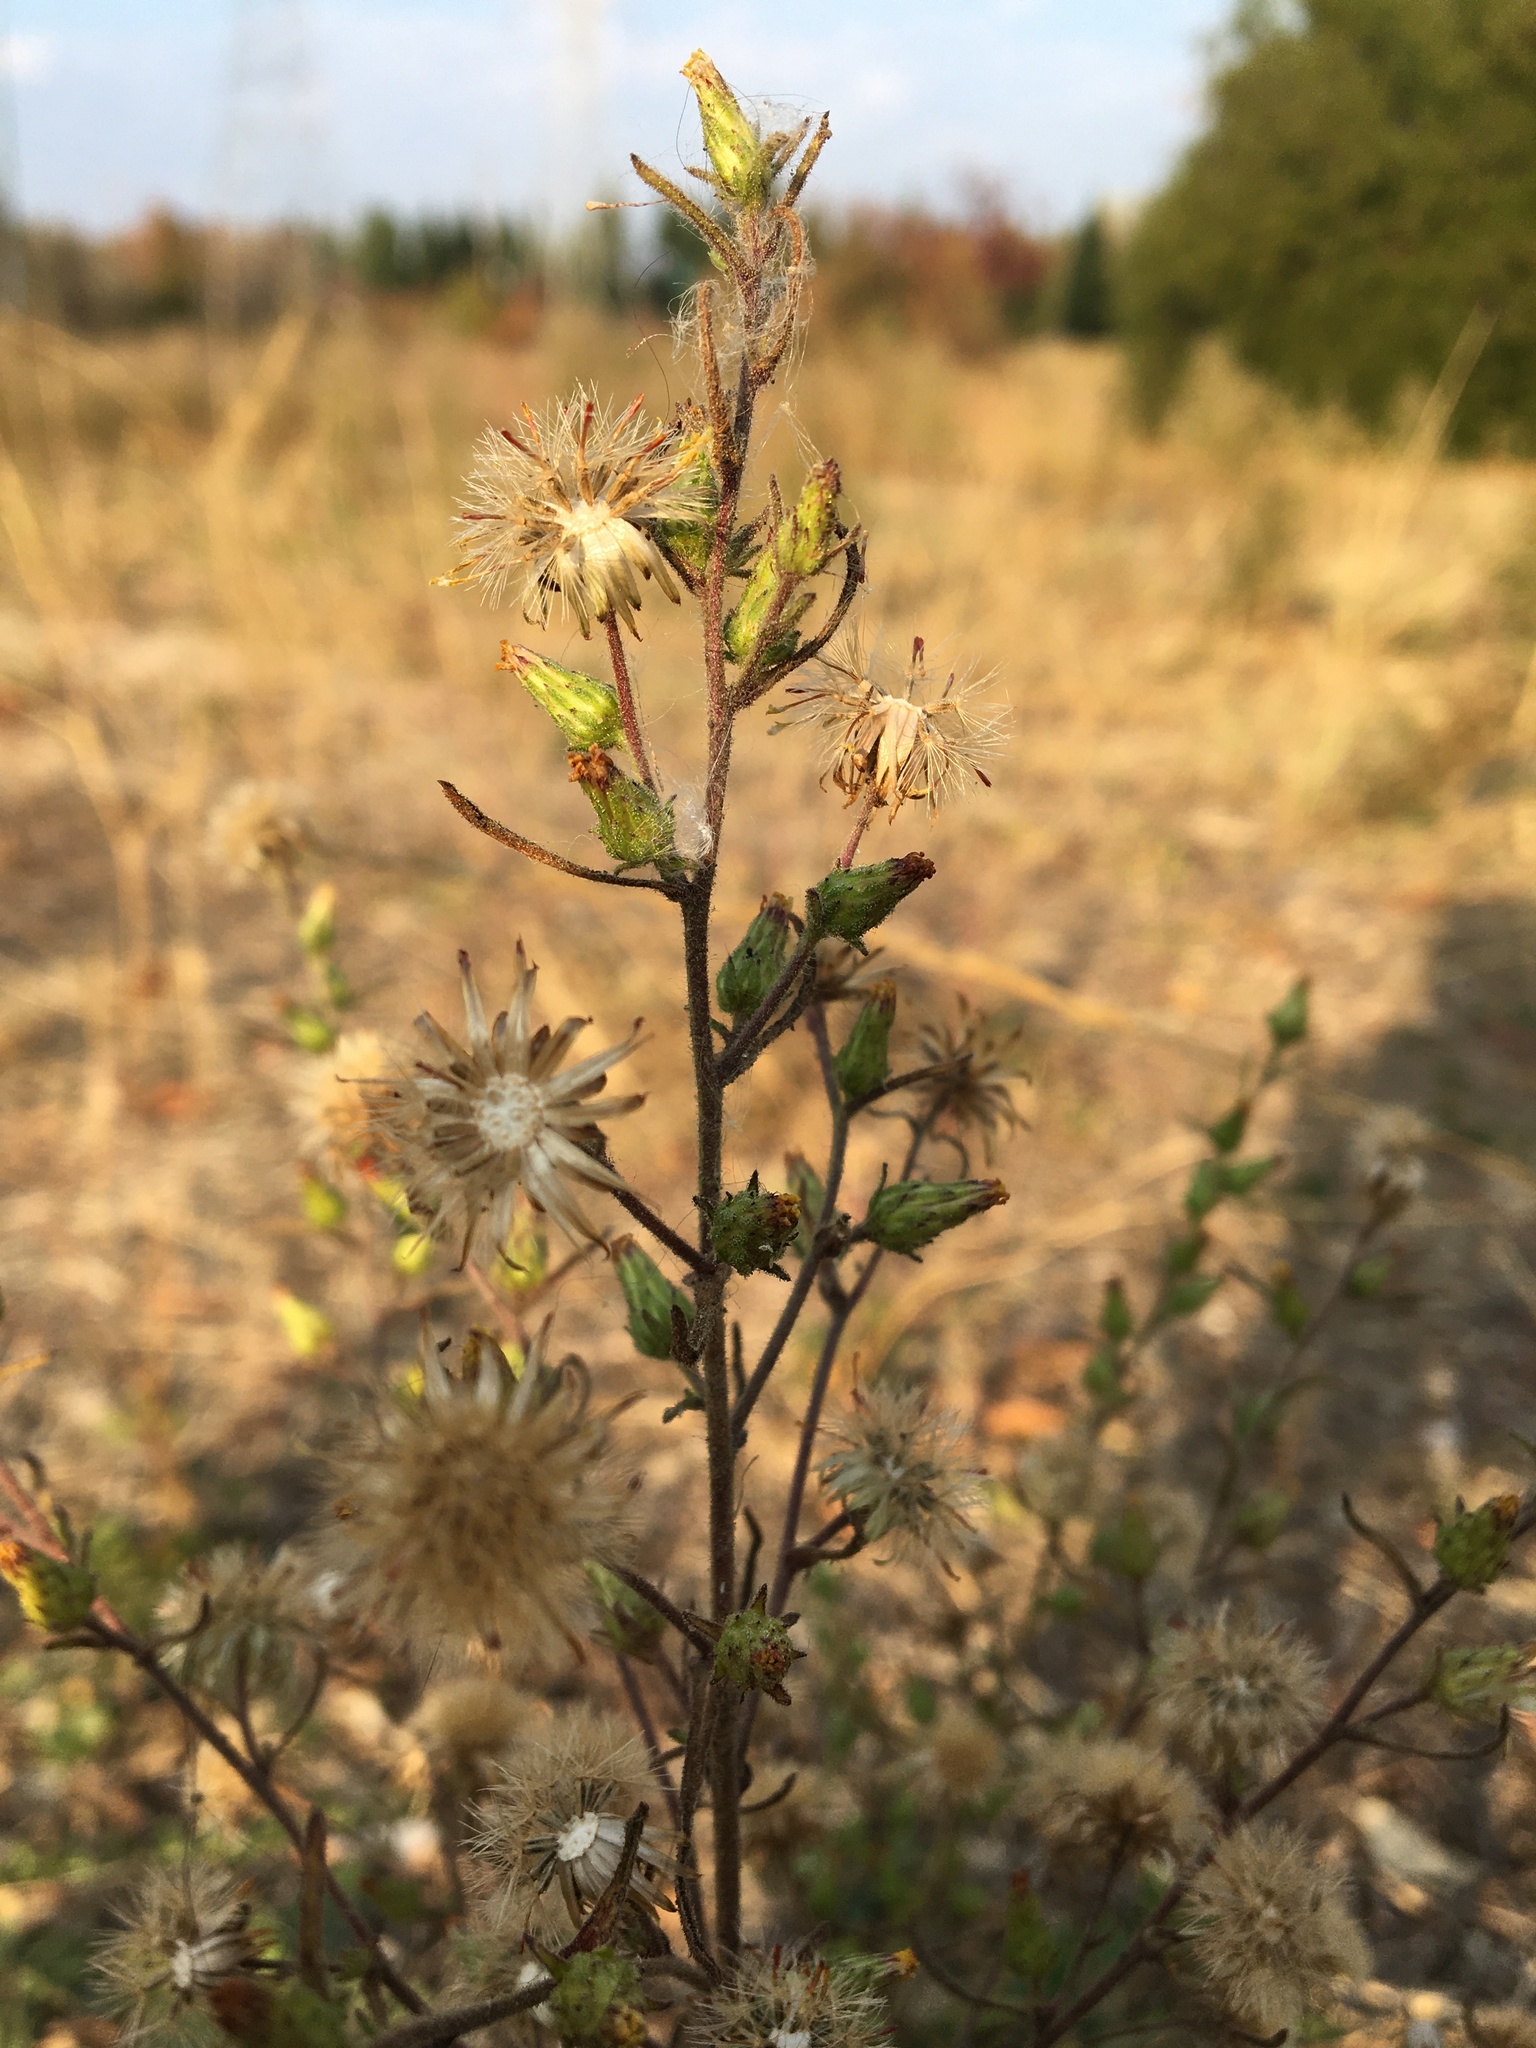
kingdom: Plantae
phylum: Tracheophyta
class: Magnoliopsida
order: Asterales
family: Asteraceae
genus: Dittrichia
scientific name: Dittrichia graveolens
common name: Stinking fleabane
